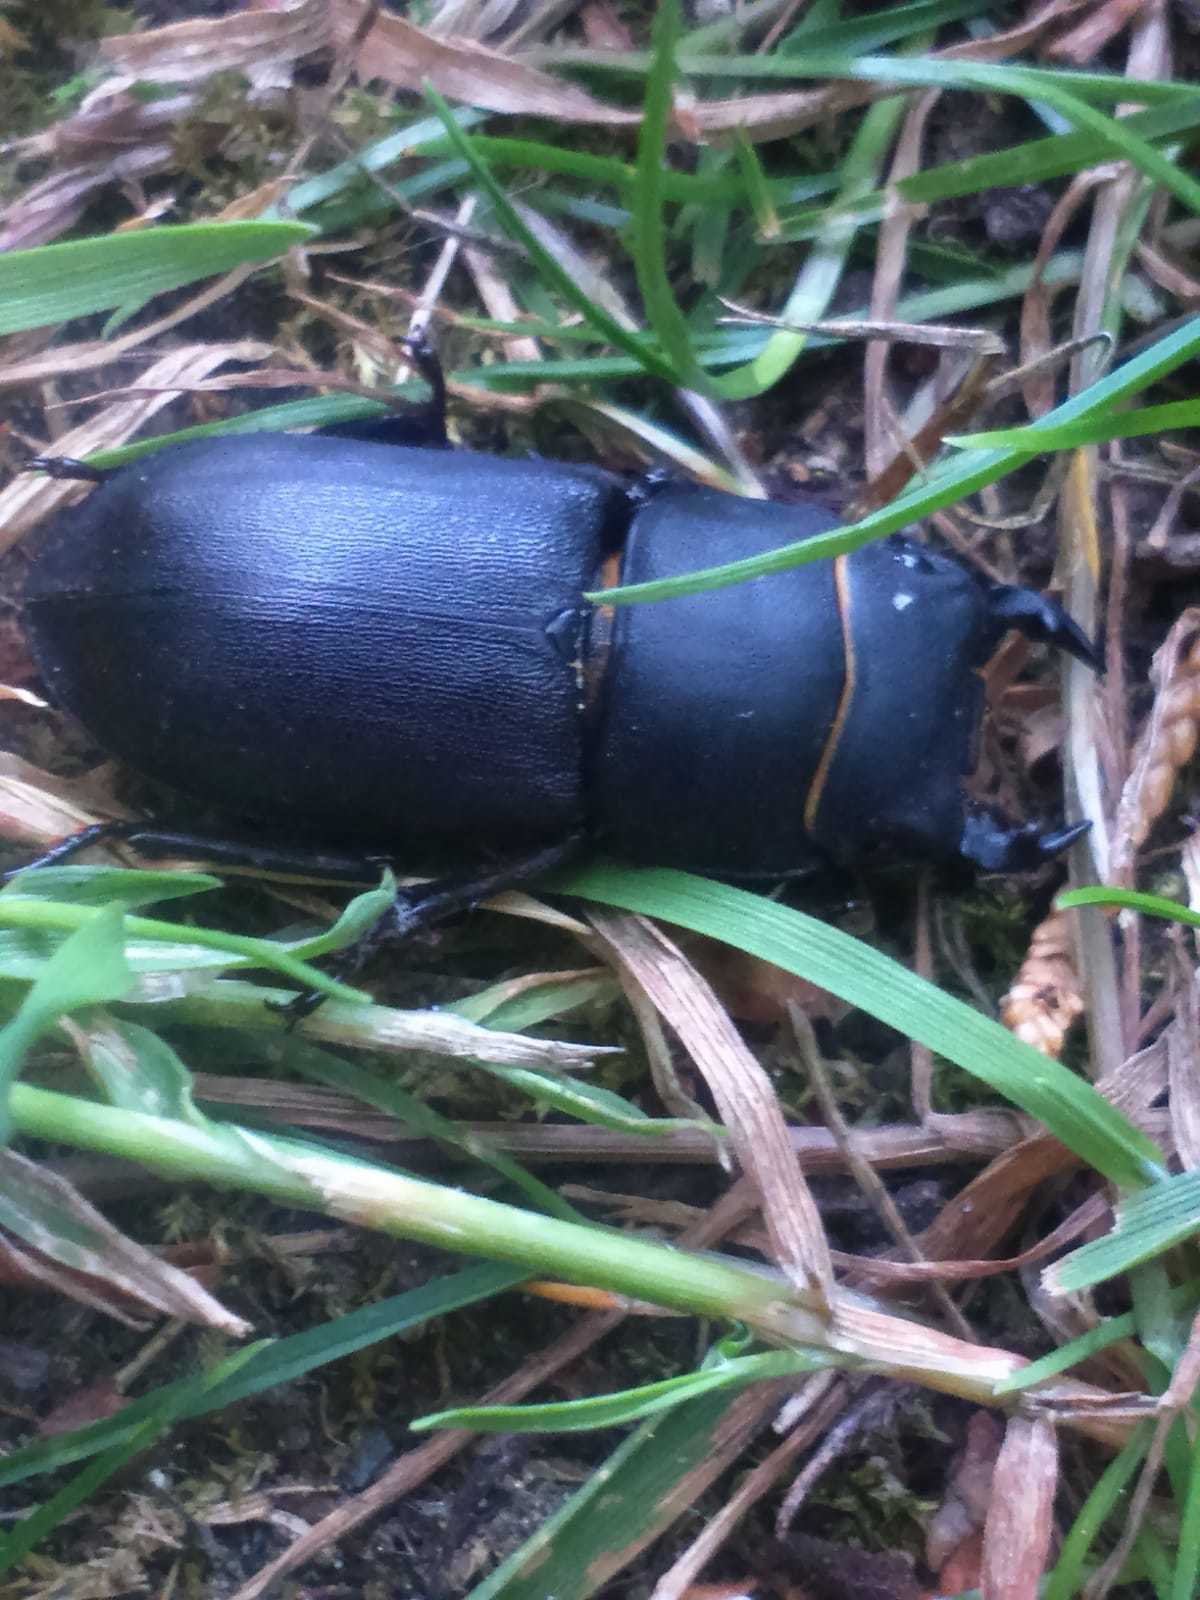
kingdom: Animalia
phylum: Arthropoda
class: Insecta
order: Coleoptera
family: Lucanidae
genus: Dorcus
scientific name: Dorcus parallelipipedus
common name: Lesser stag beetle
